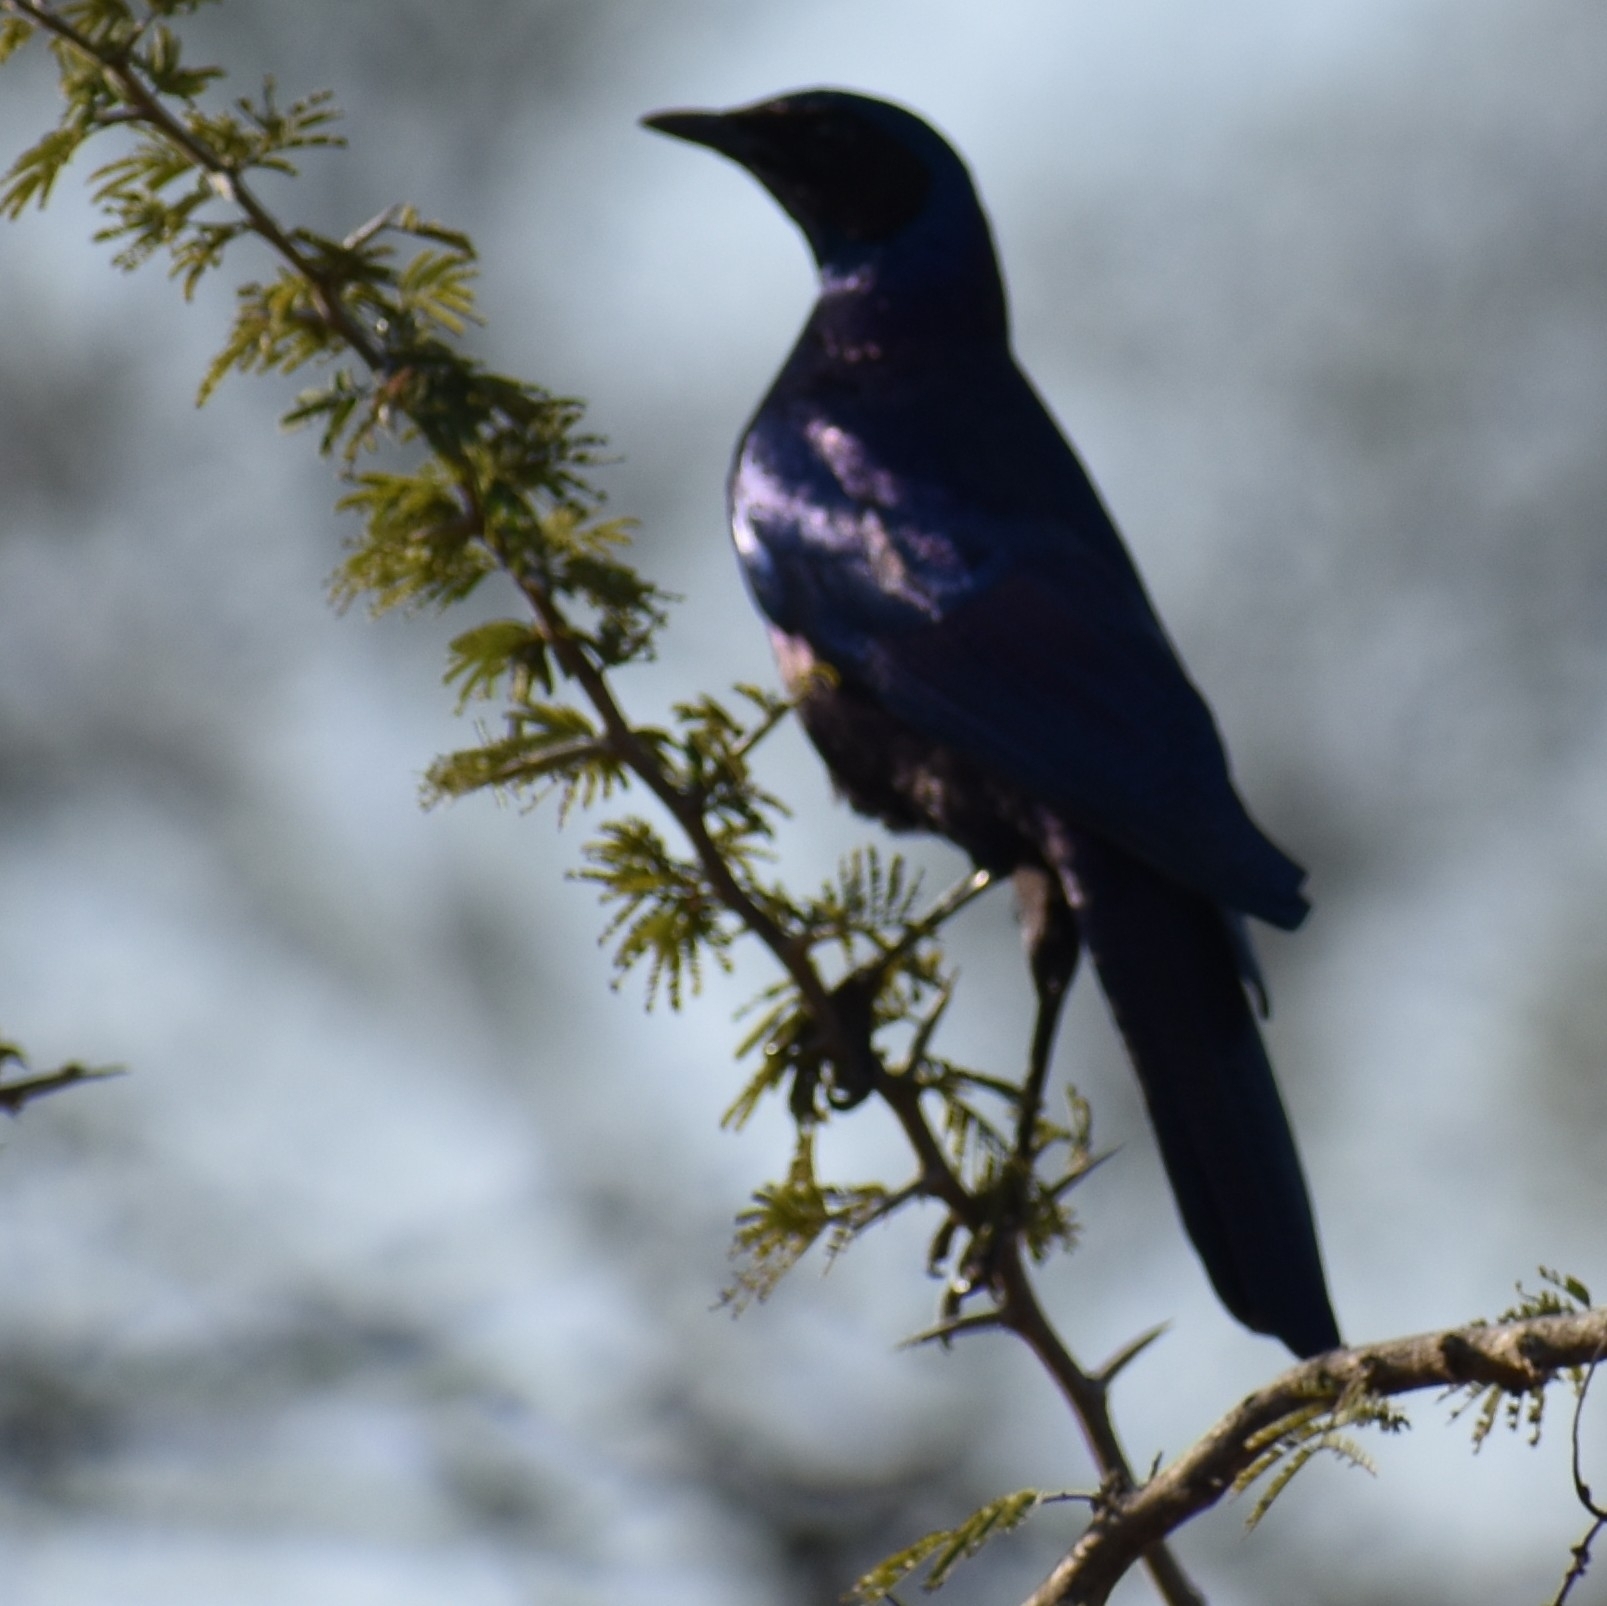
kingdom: Animalia
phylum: Chordata
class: Aves
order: Passeriformes
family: Sturnidae
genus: Lamprotornis
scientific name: Lamprotornis australis
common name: Burchell's starling
